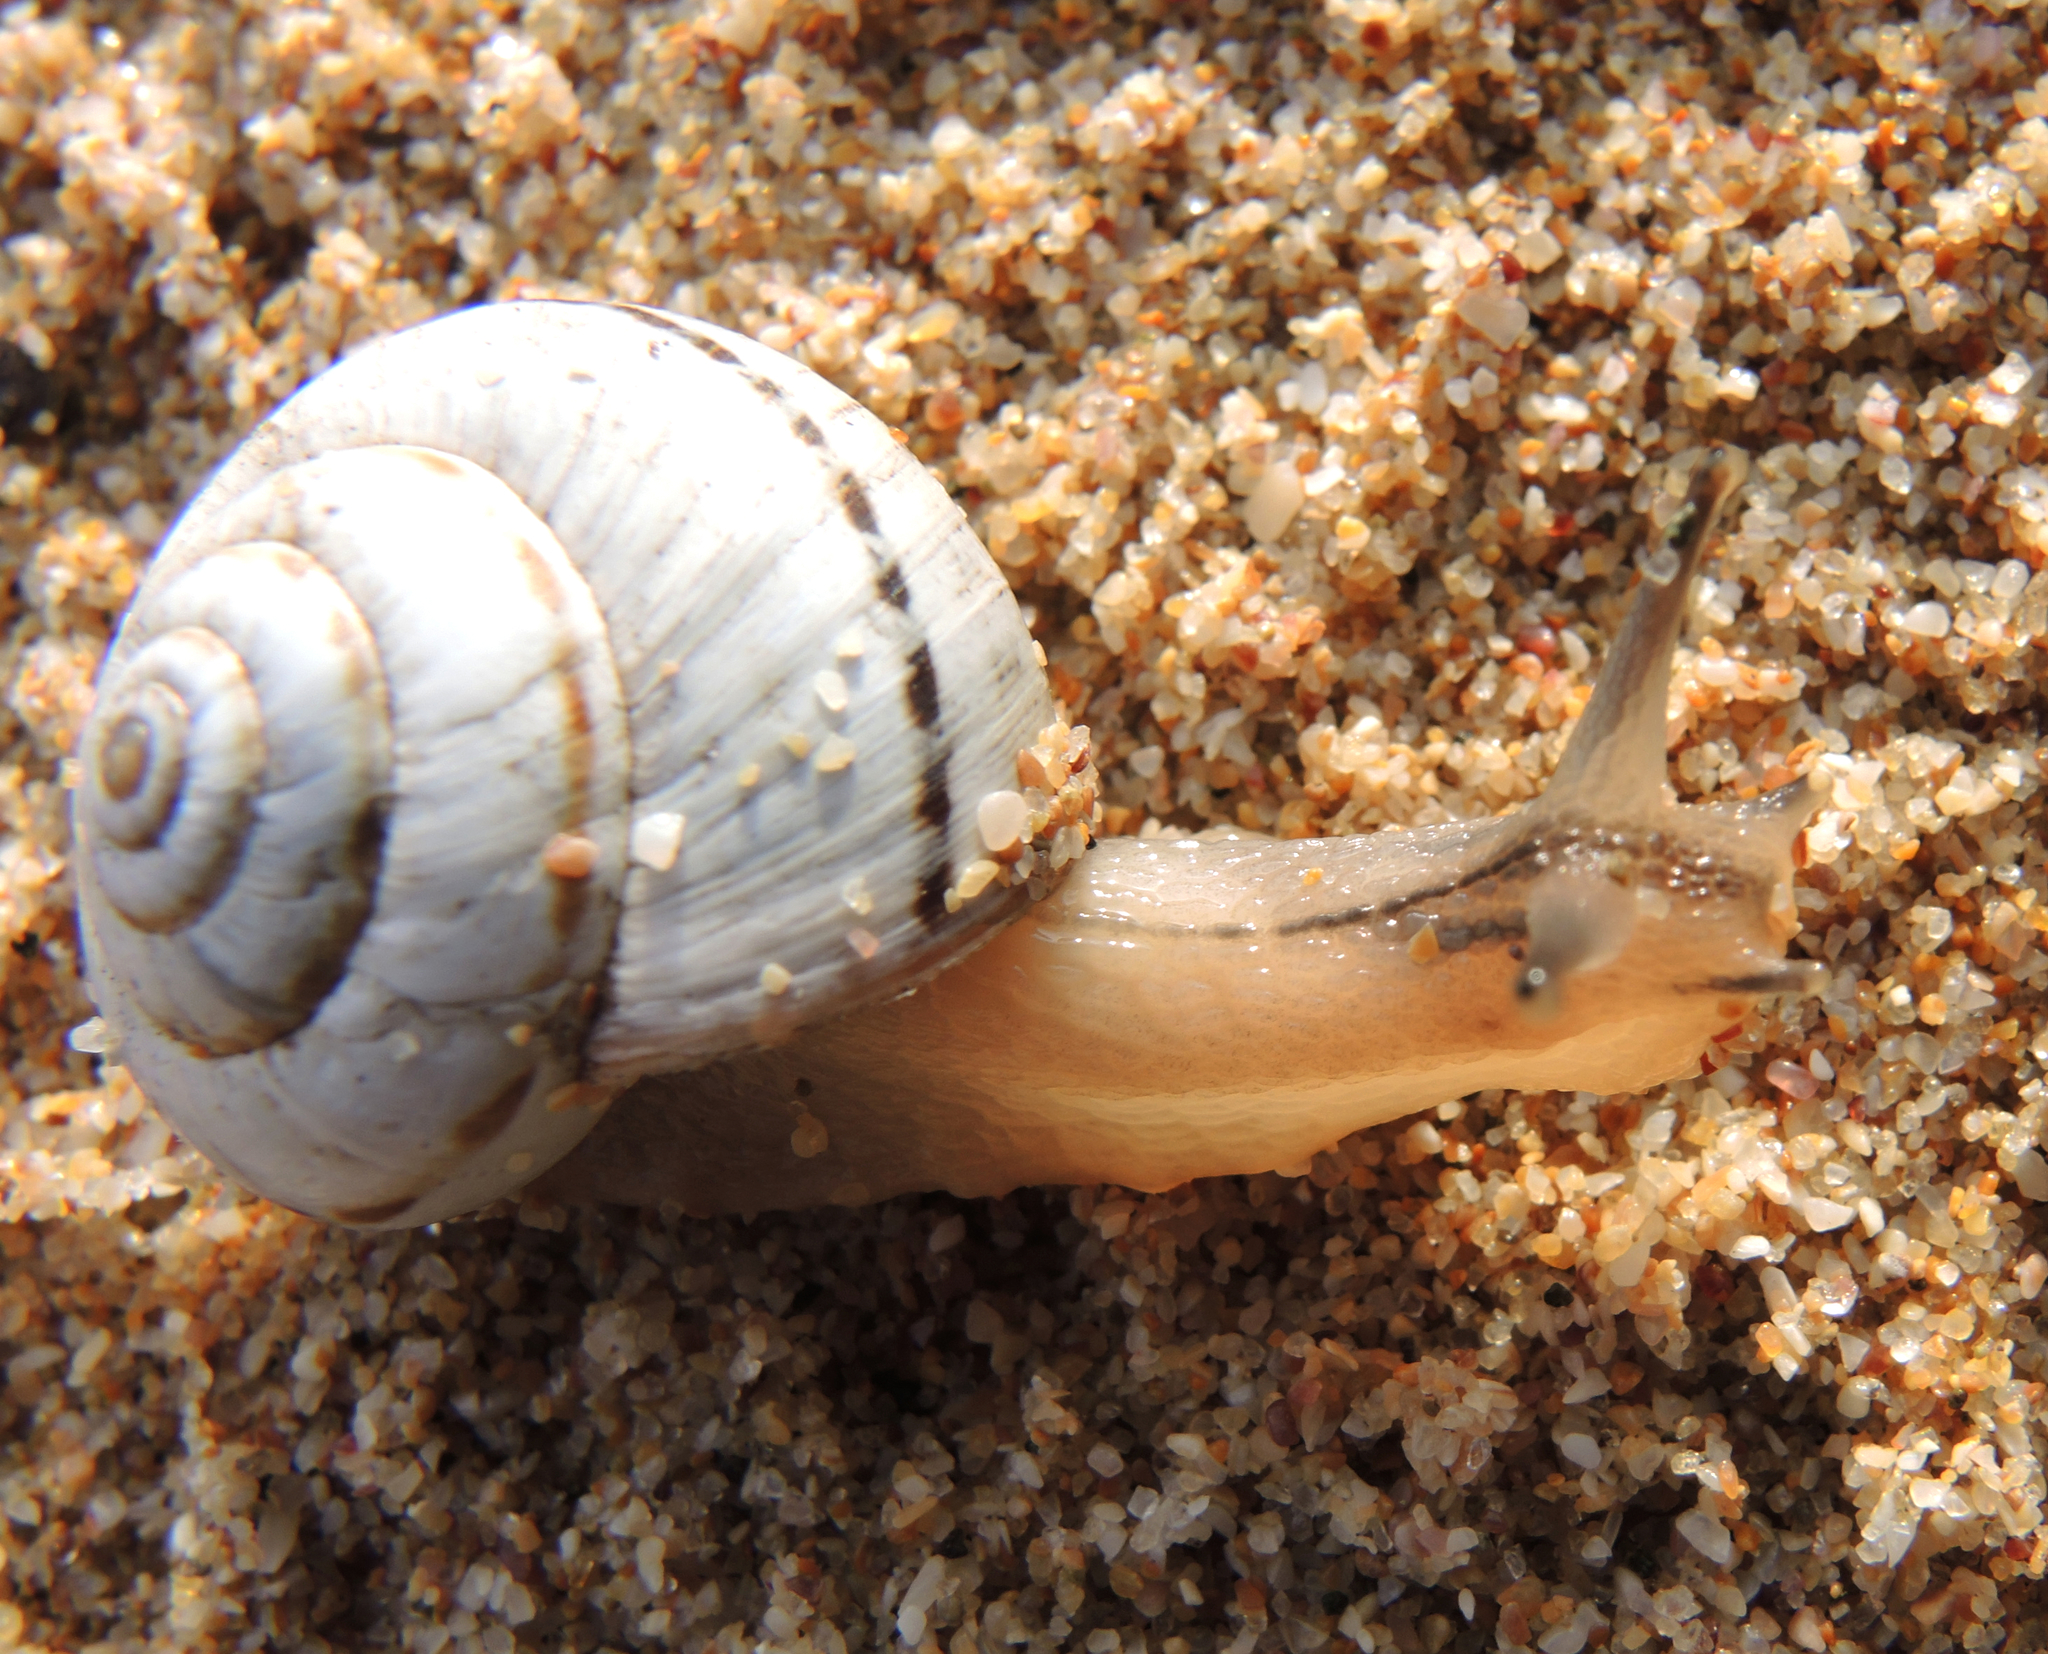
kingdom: Animalia
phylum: Mollusca
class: Gastropoda
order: Stylommatophora
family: Geomitridae
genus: Cernuella
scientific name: Cernuella virgata
